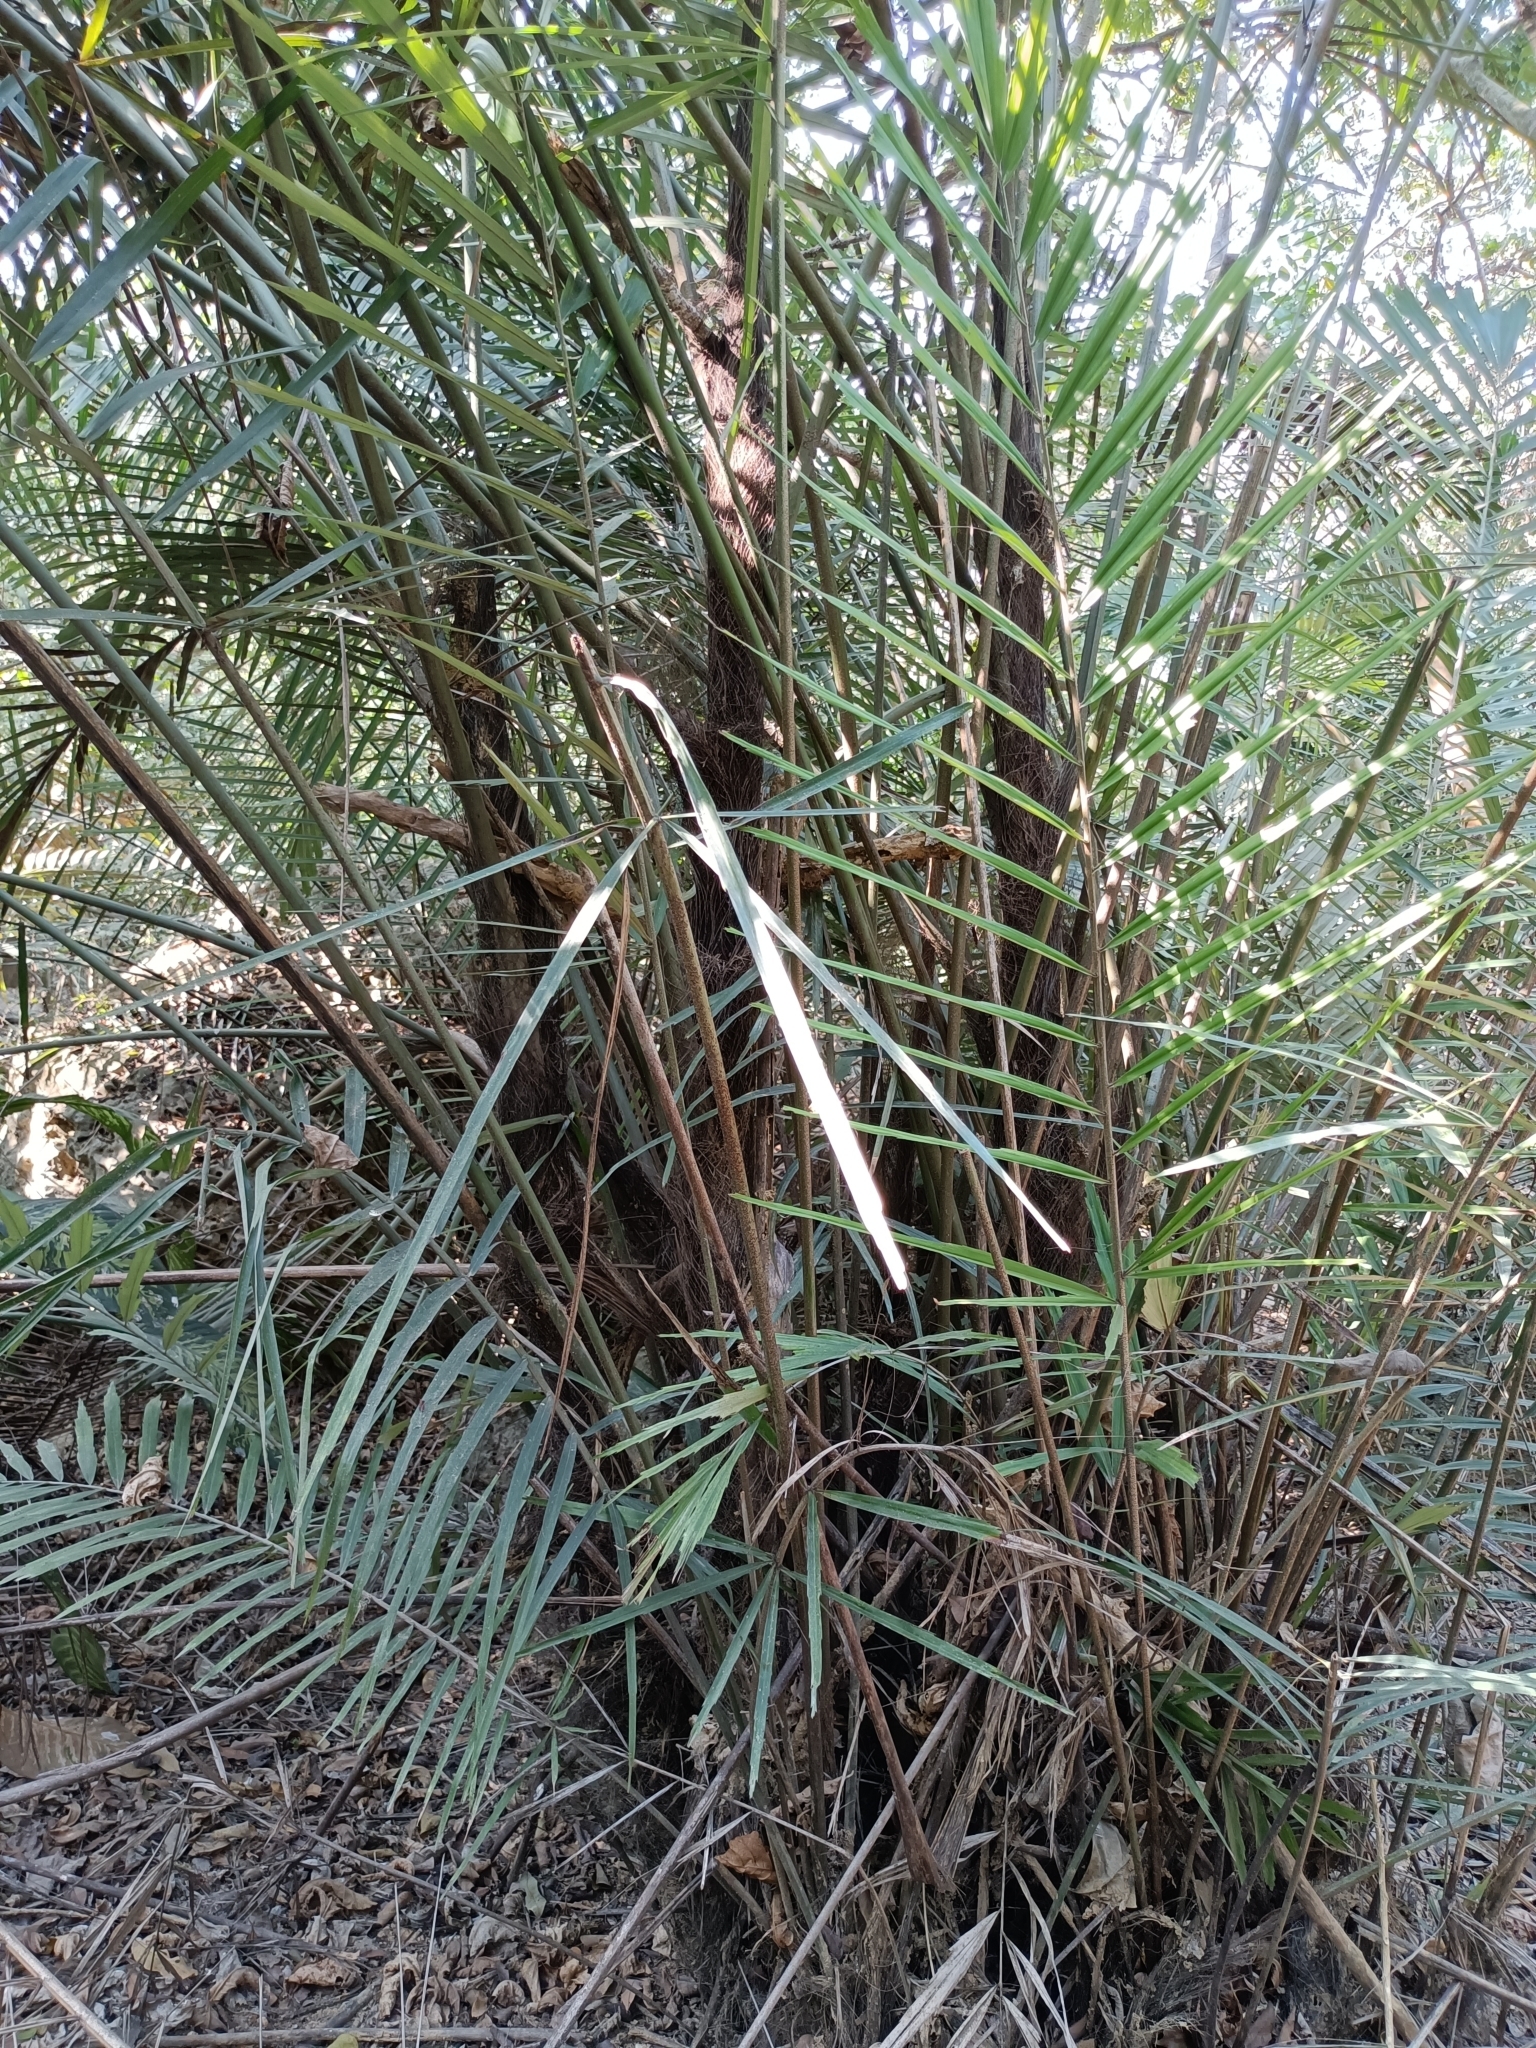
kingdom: Plantae
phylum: Tracheophyta
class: Liliopsida
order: Arecales
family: Arecaceae
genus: Arenga
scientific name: Arenga engleri
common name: Formosan sugar palm
